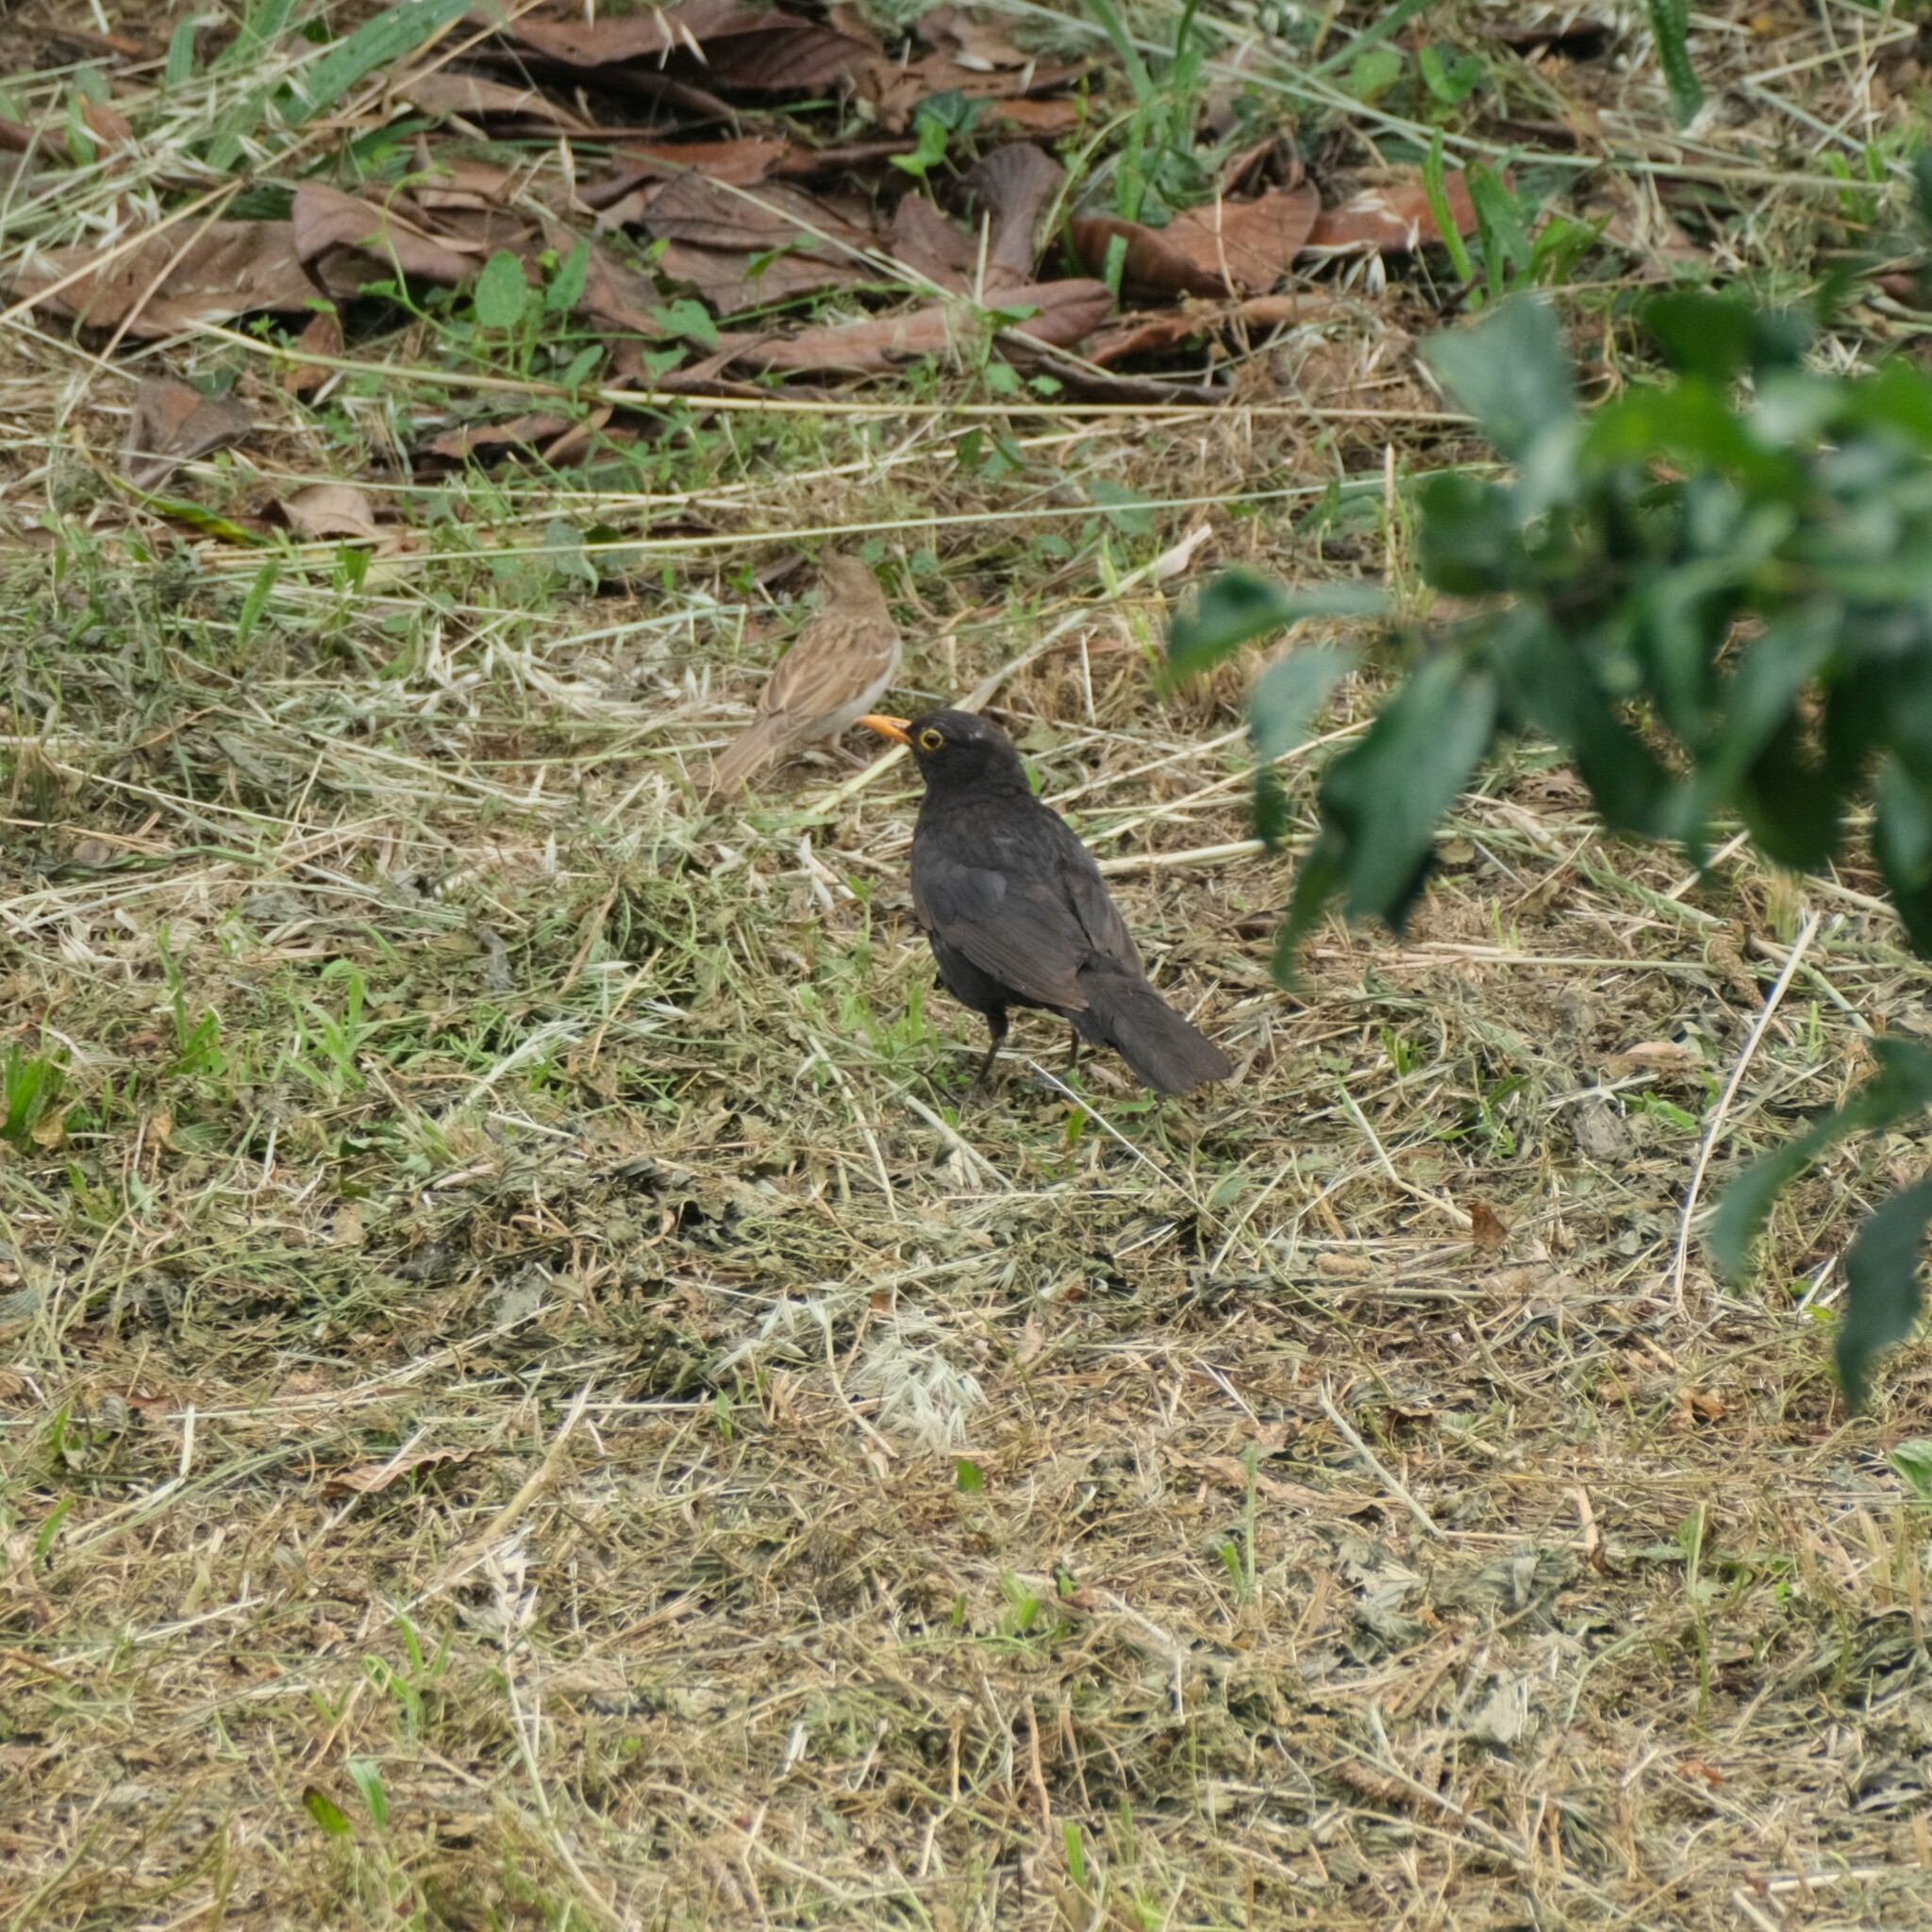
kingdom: Animalia
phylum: Chordata
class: Aves
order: Passeriformes
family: Turdidae
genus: Turdus
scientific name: Turdus merula
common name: Common blackbird
